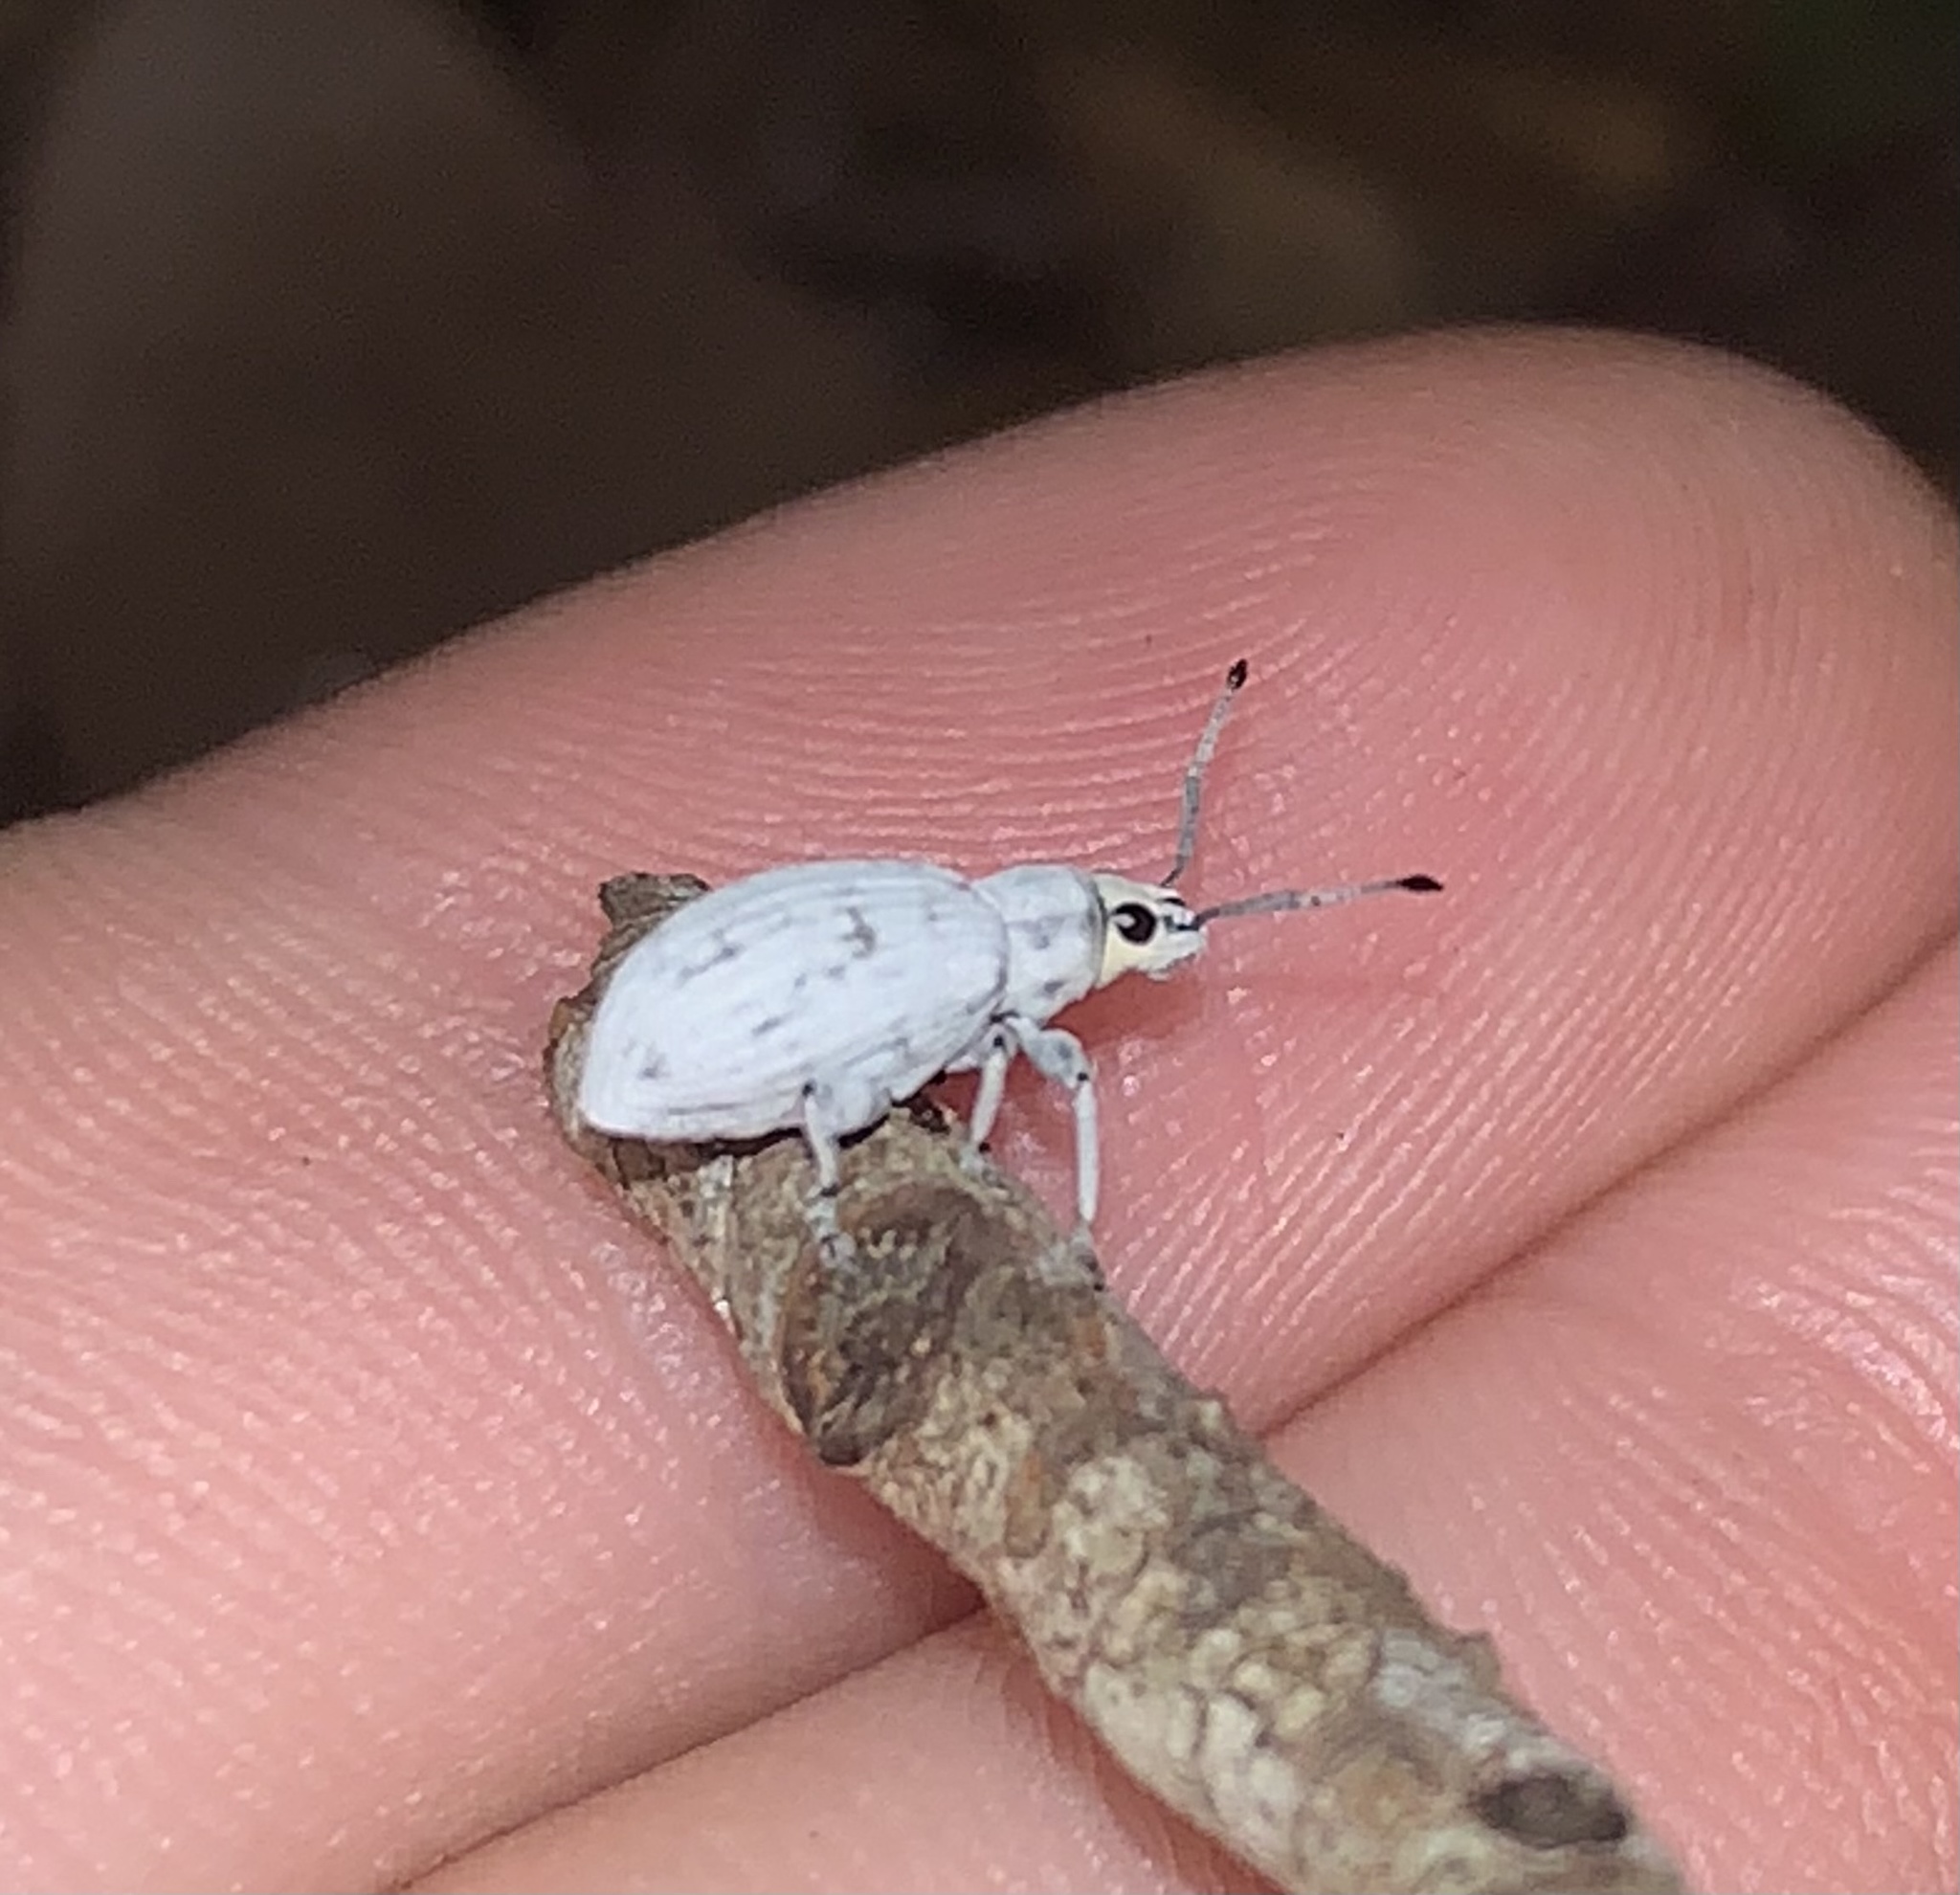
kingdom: Animalia
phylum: Arthropoda
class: Insecta
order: Coleoptera
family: Curculionidae
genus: Myllocerus
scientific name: Myllocerus undecimpustulatus
